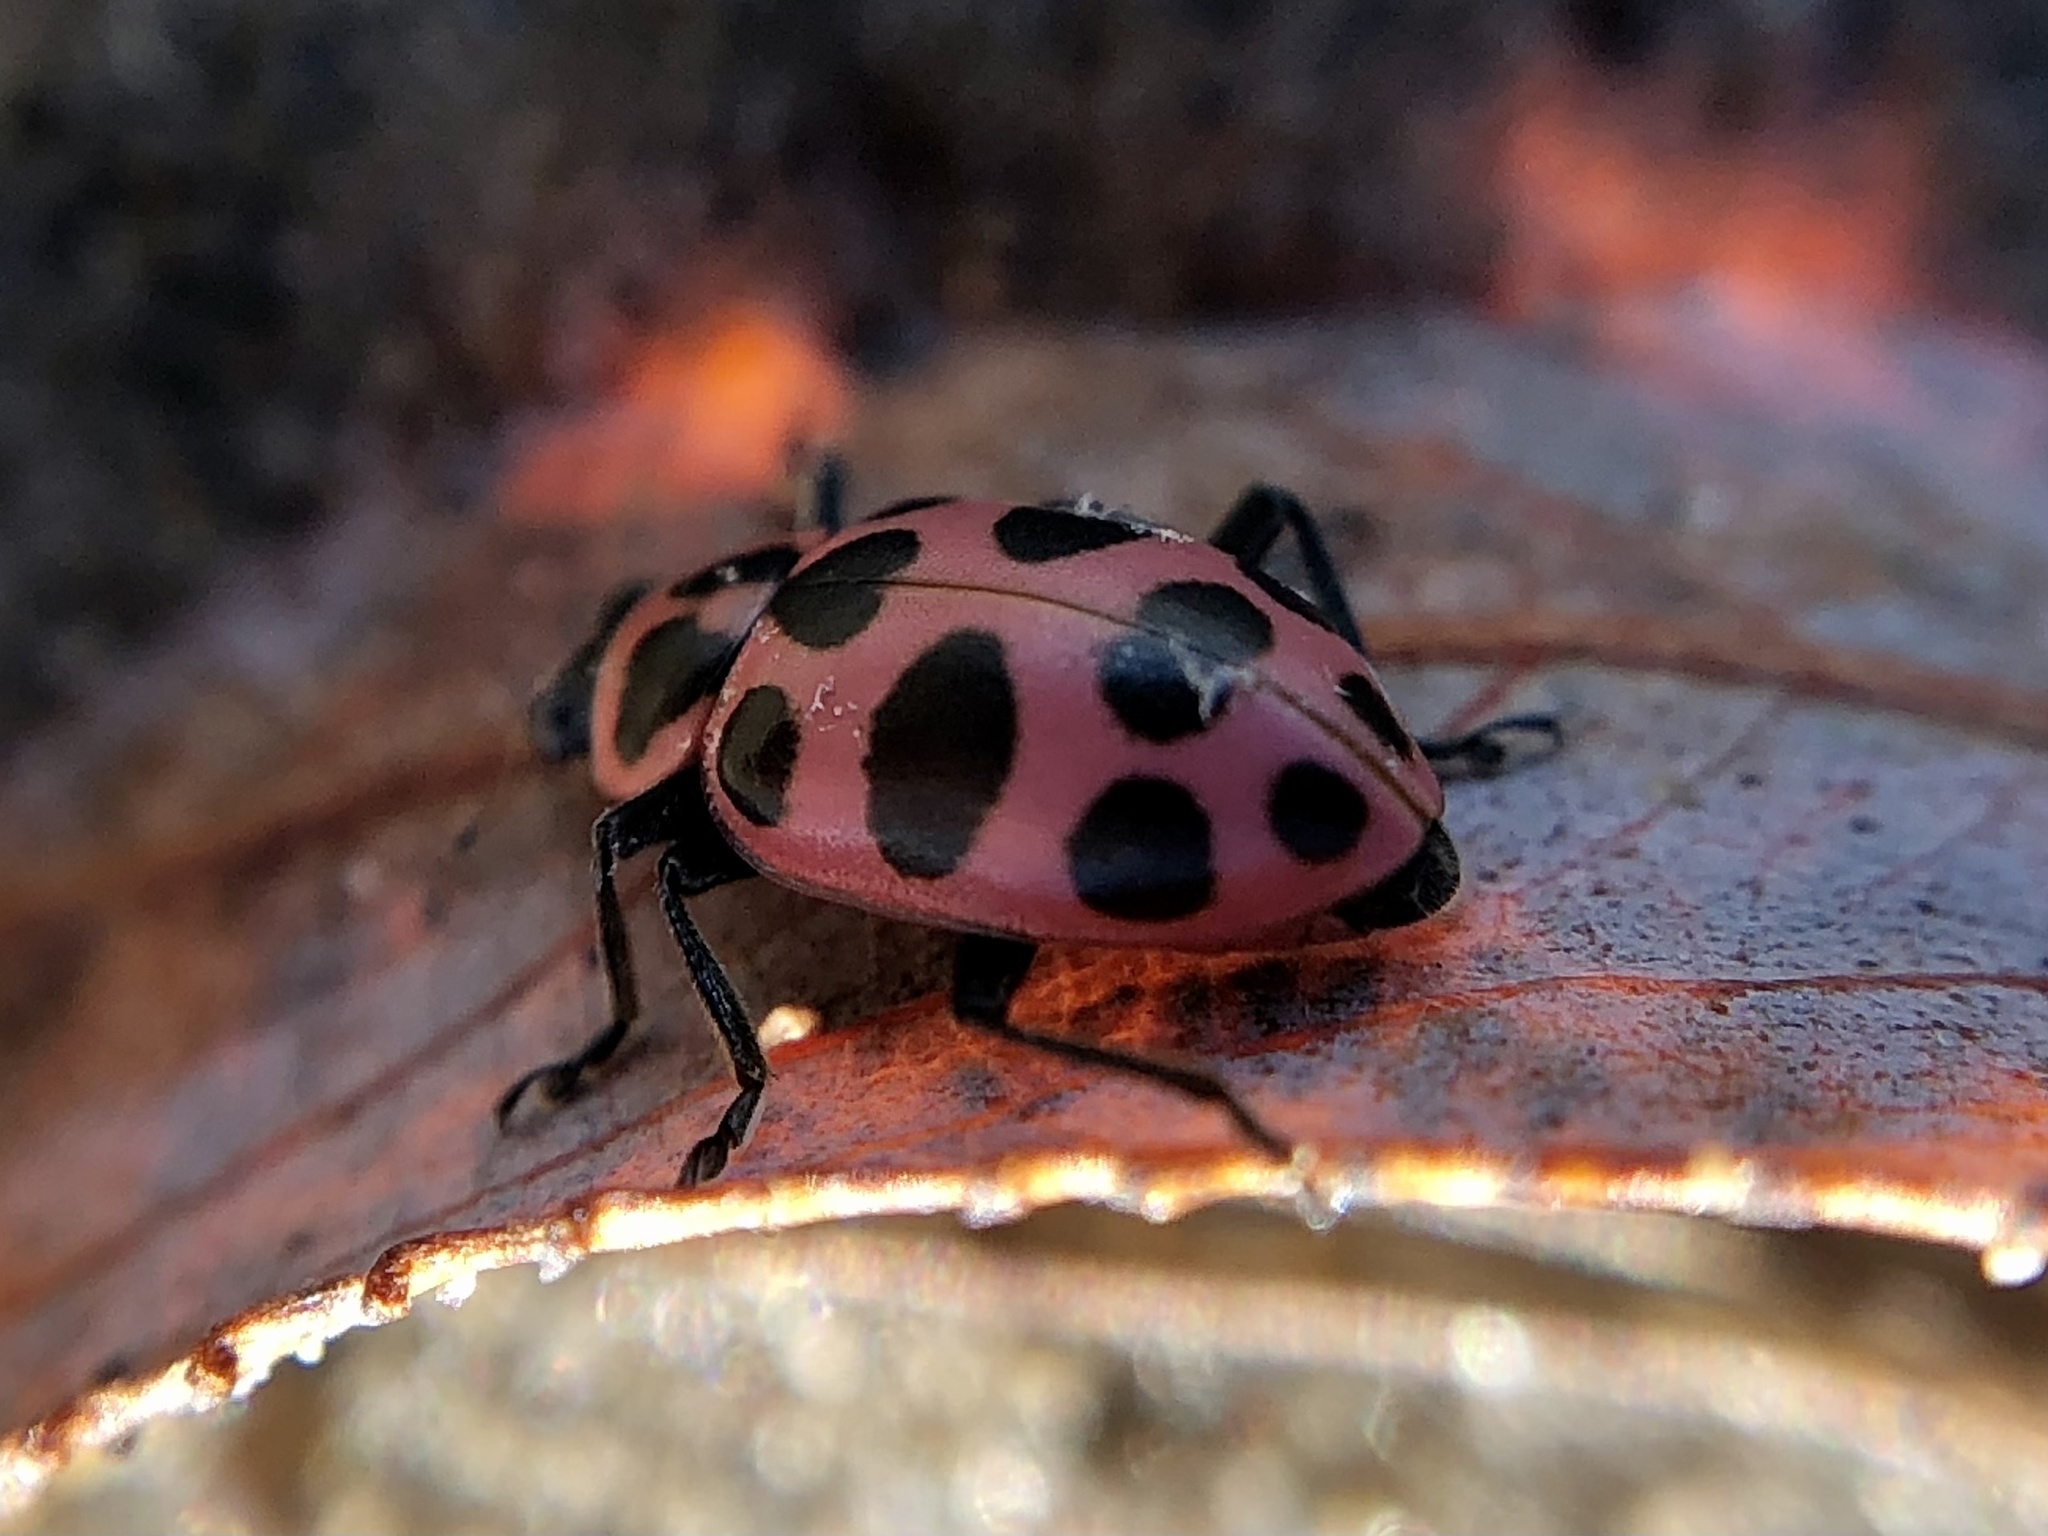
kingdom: Animalia
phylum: Arthropoda
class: Insecta
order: Coleoptera
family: Coccinellidae
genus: Coleomegilla
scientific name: Coleomegilla maculata
